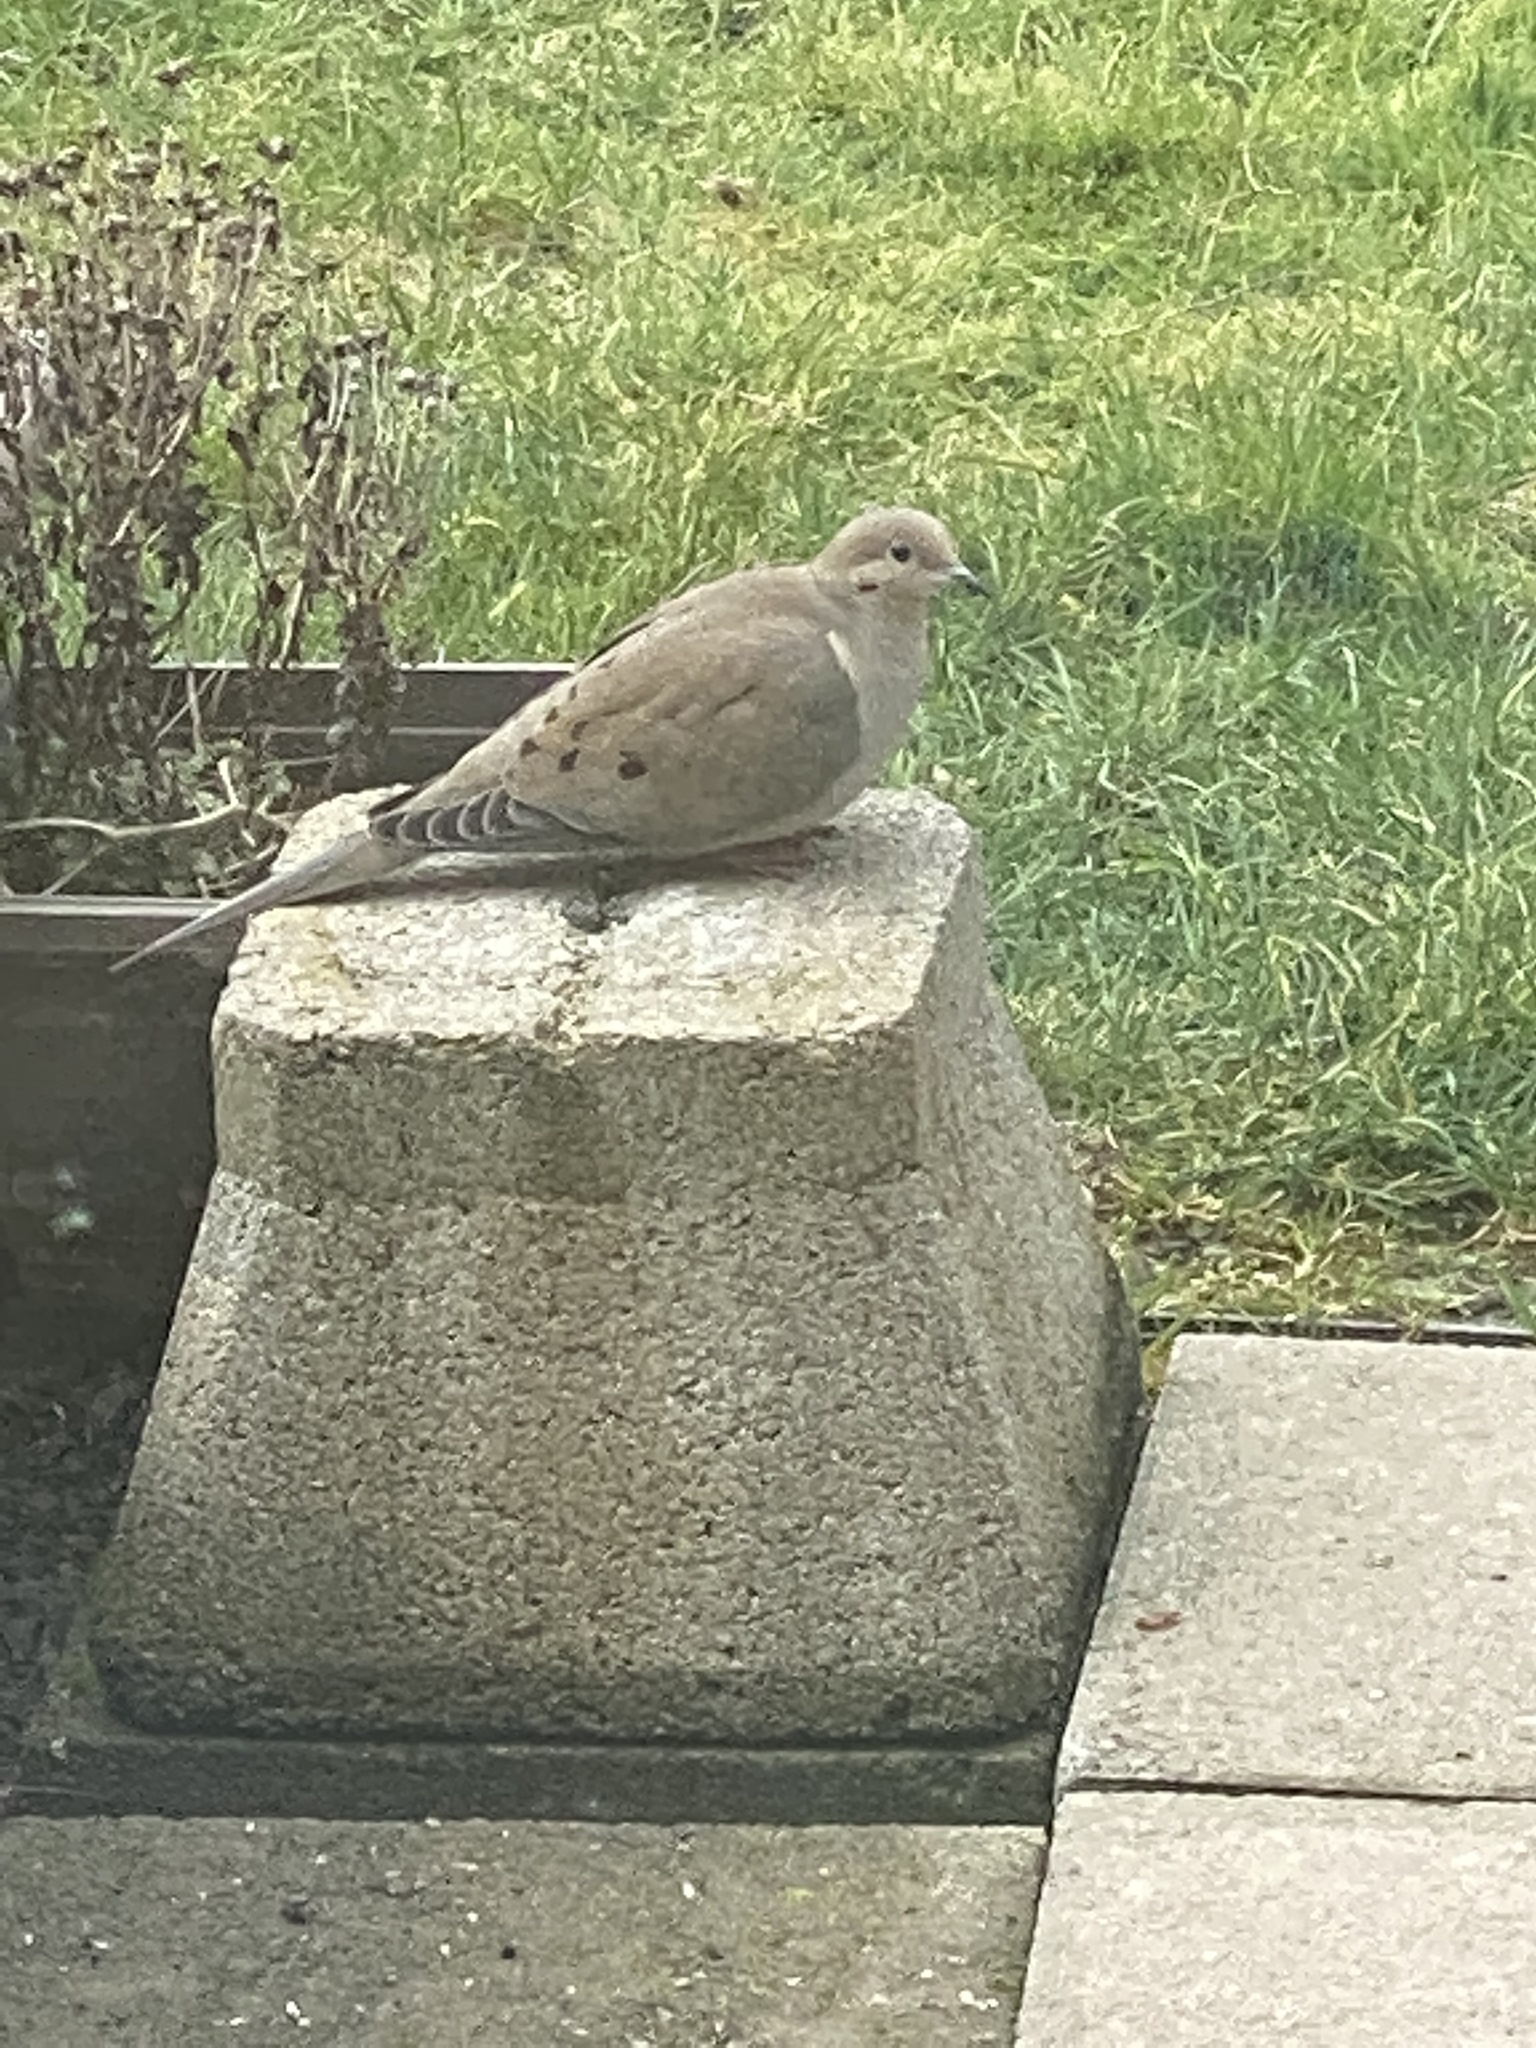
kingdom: Animalia
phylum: Chordata
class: Aves
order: Columbiformes
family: Columbidae
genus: Zenaida
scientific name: Zenaida macroura
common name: Mourning dove
